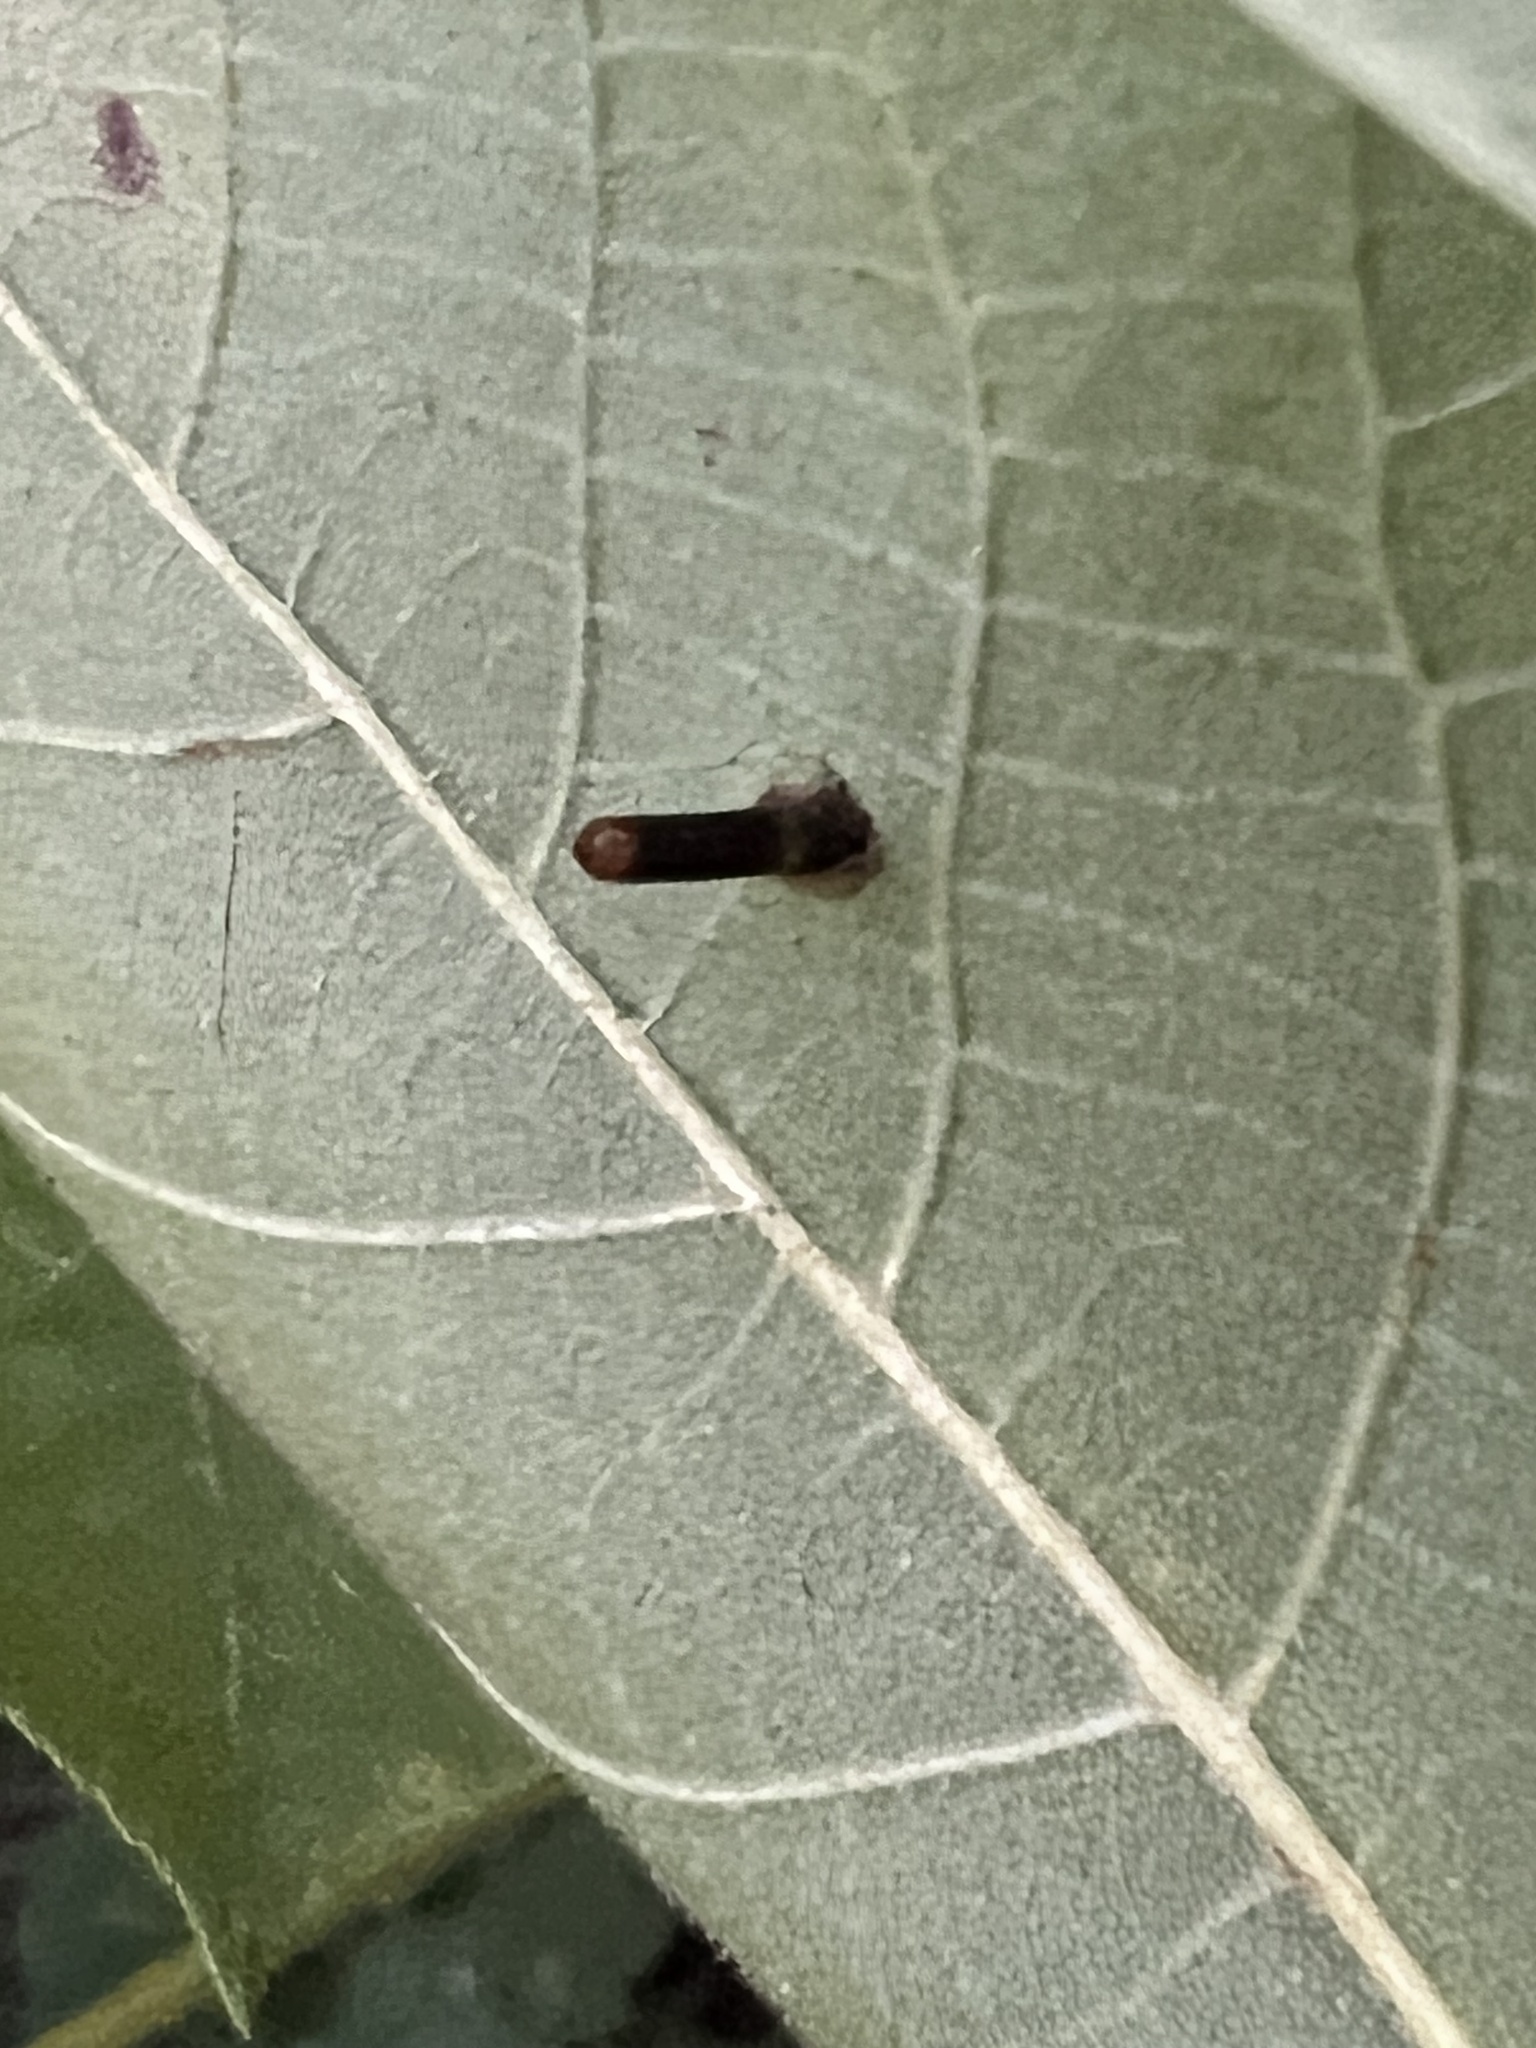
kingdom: Animalia
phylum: Arthropoda
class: Insecta
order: Diptera
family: Cecidomyiidae
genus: Caryomyia
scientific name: Caryomyia tubicola
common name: Hickory bullet gall midge
